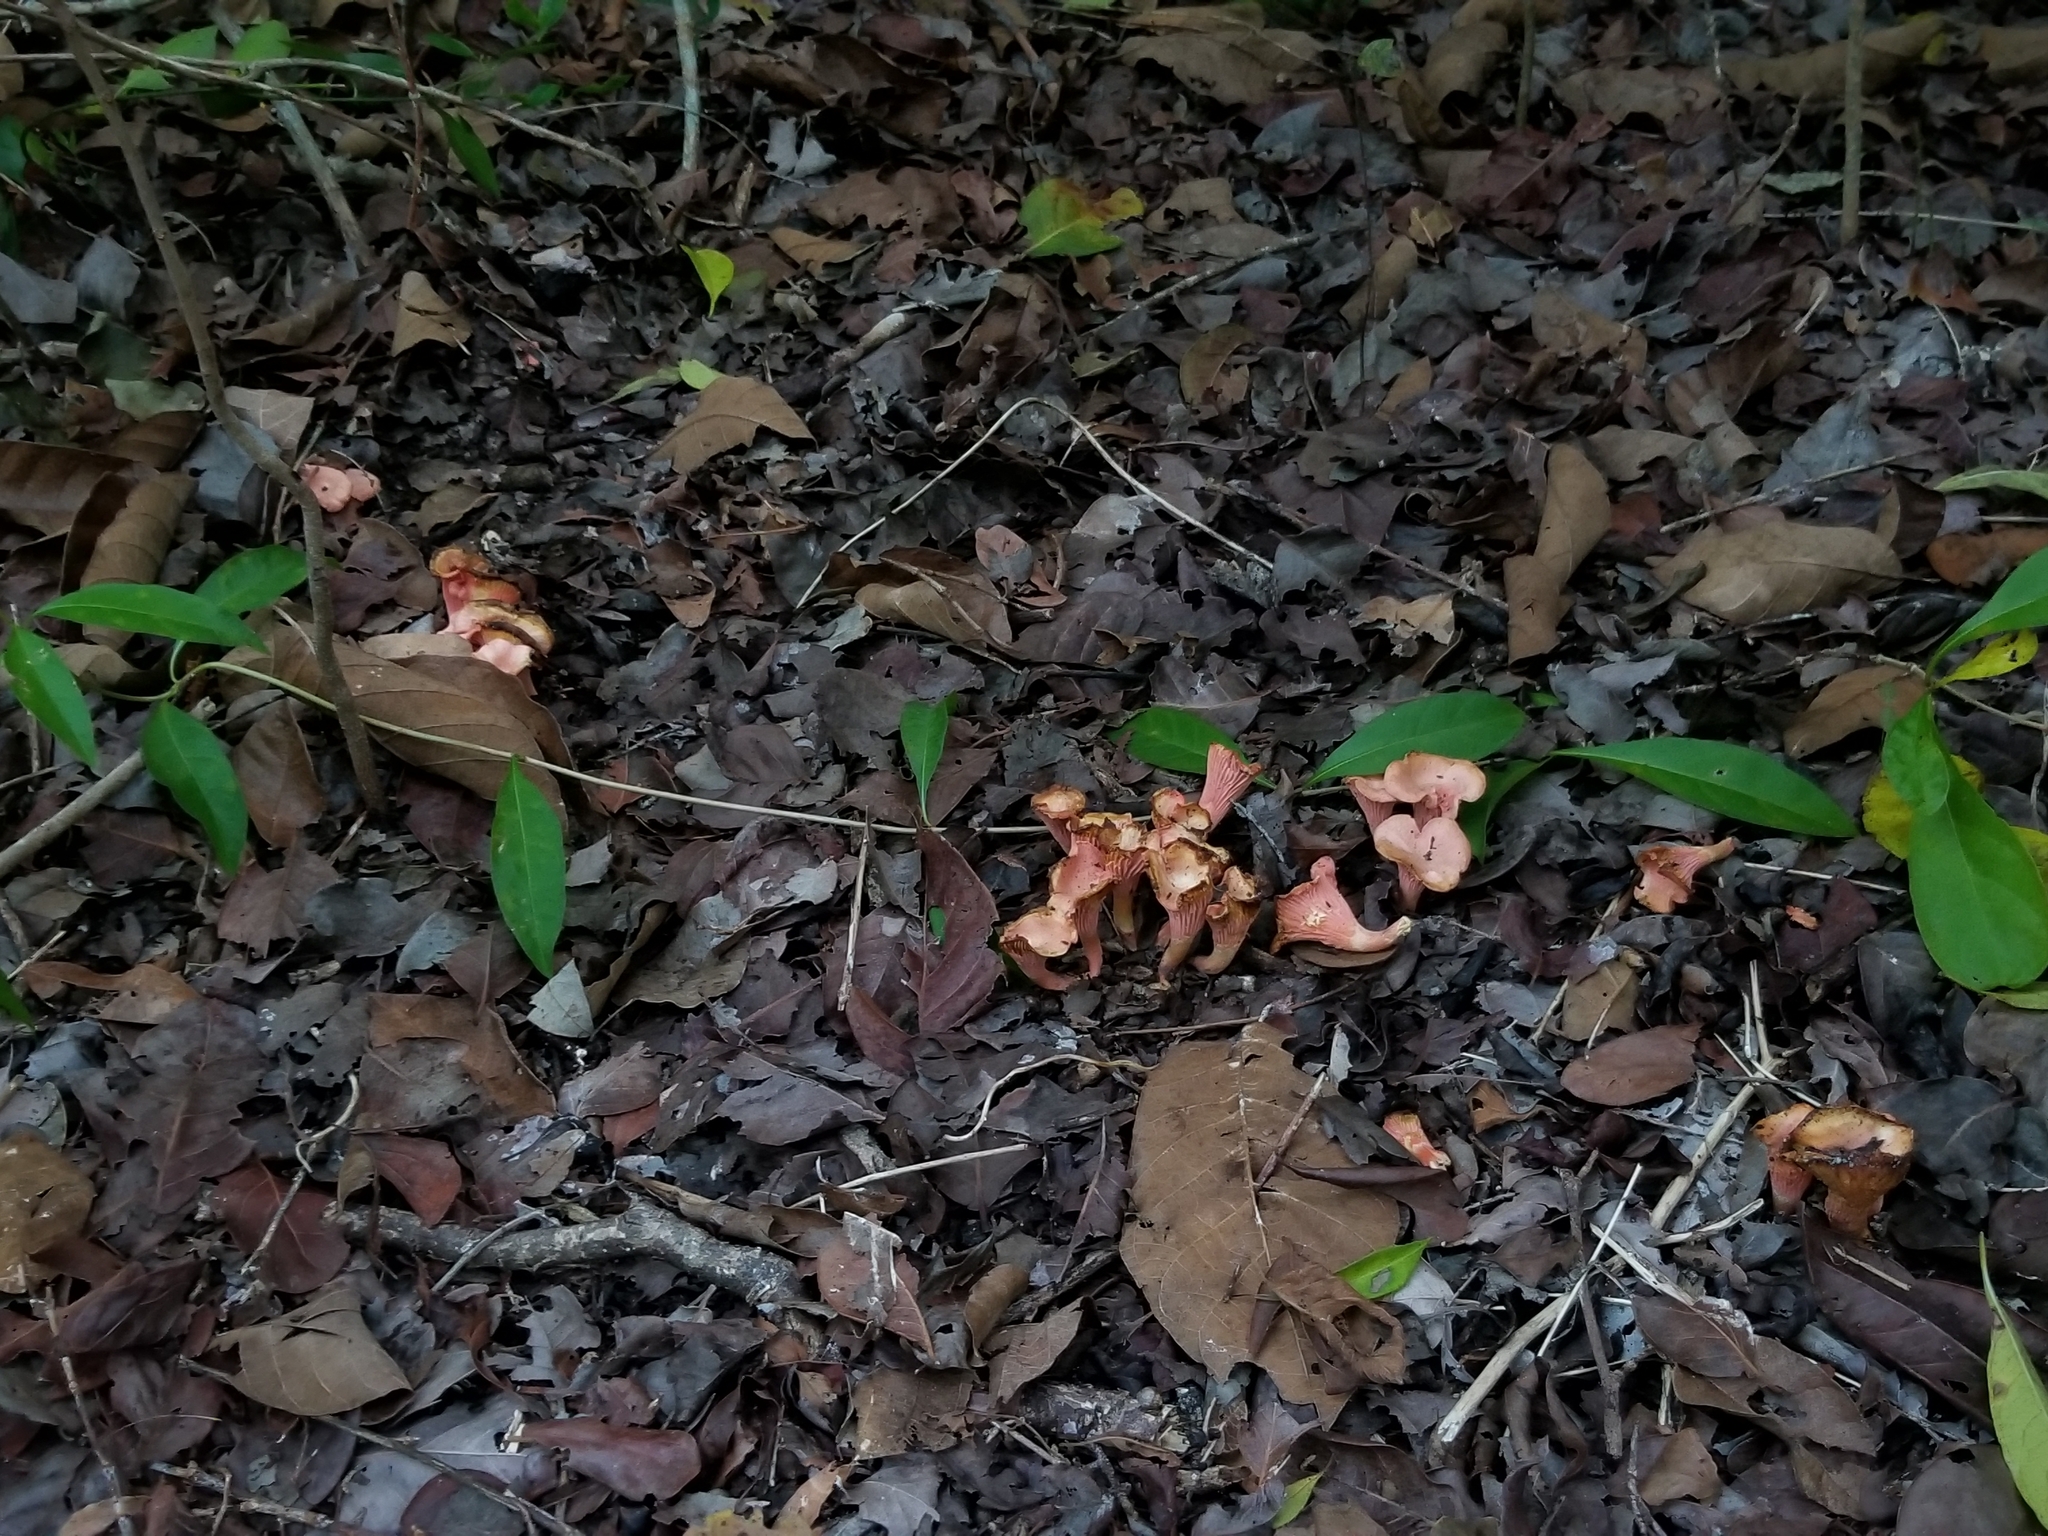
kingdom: Fungi
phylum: Basidiomycota
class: Agaricomycetes
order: Cantharellales
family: Hydnaceae
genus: Cantharellus
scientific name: Cantharellus coccolobae
